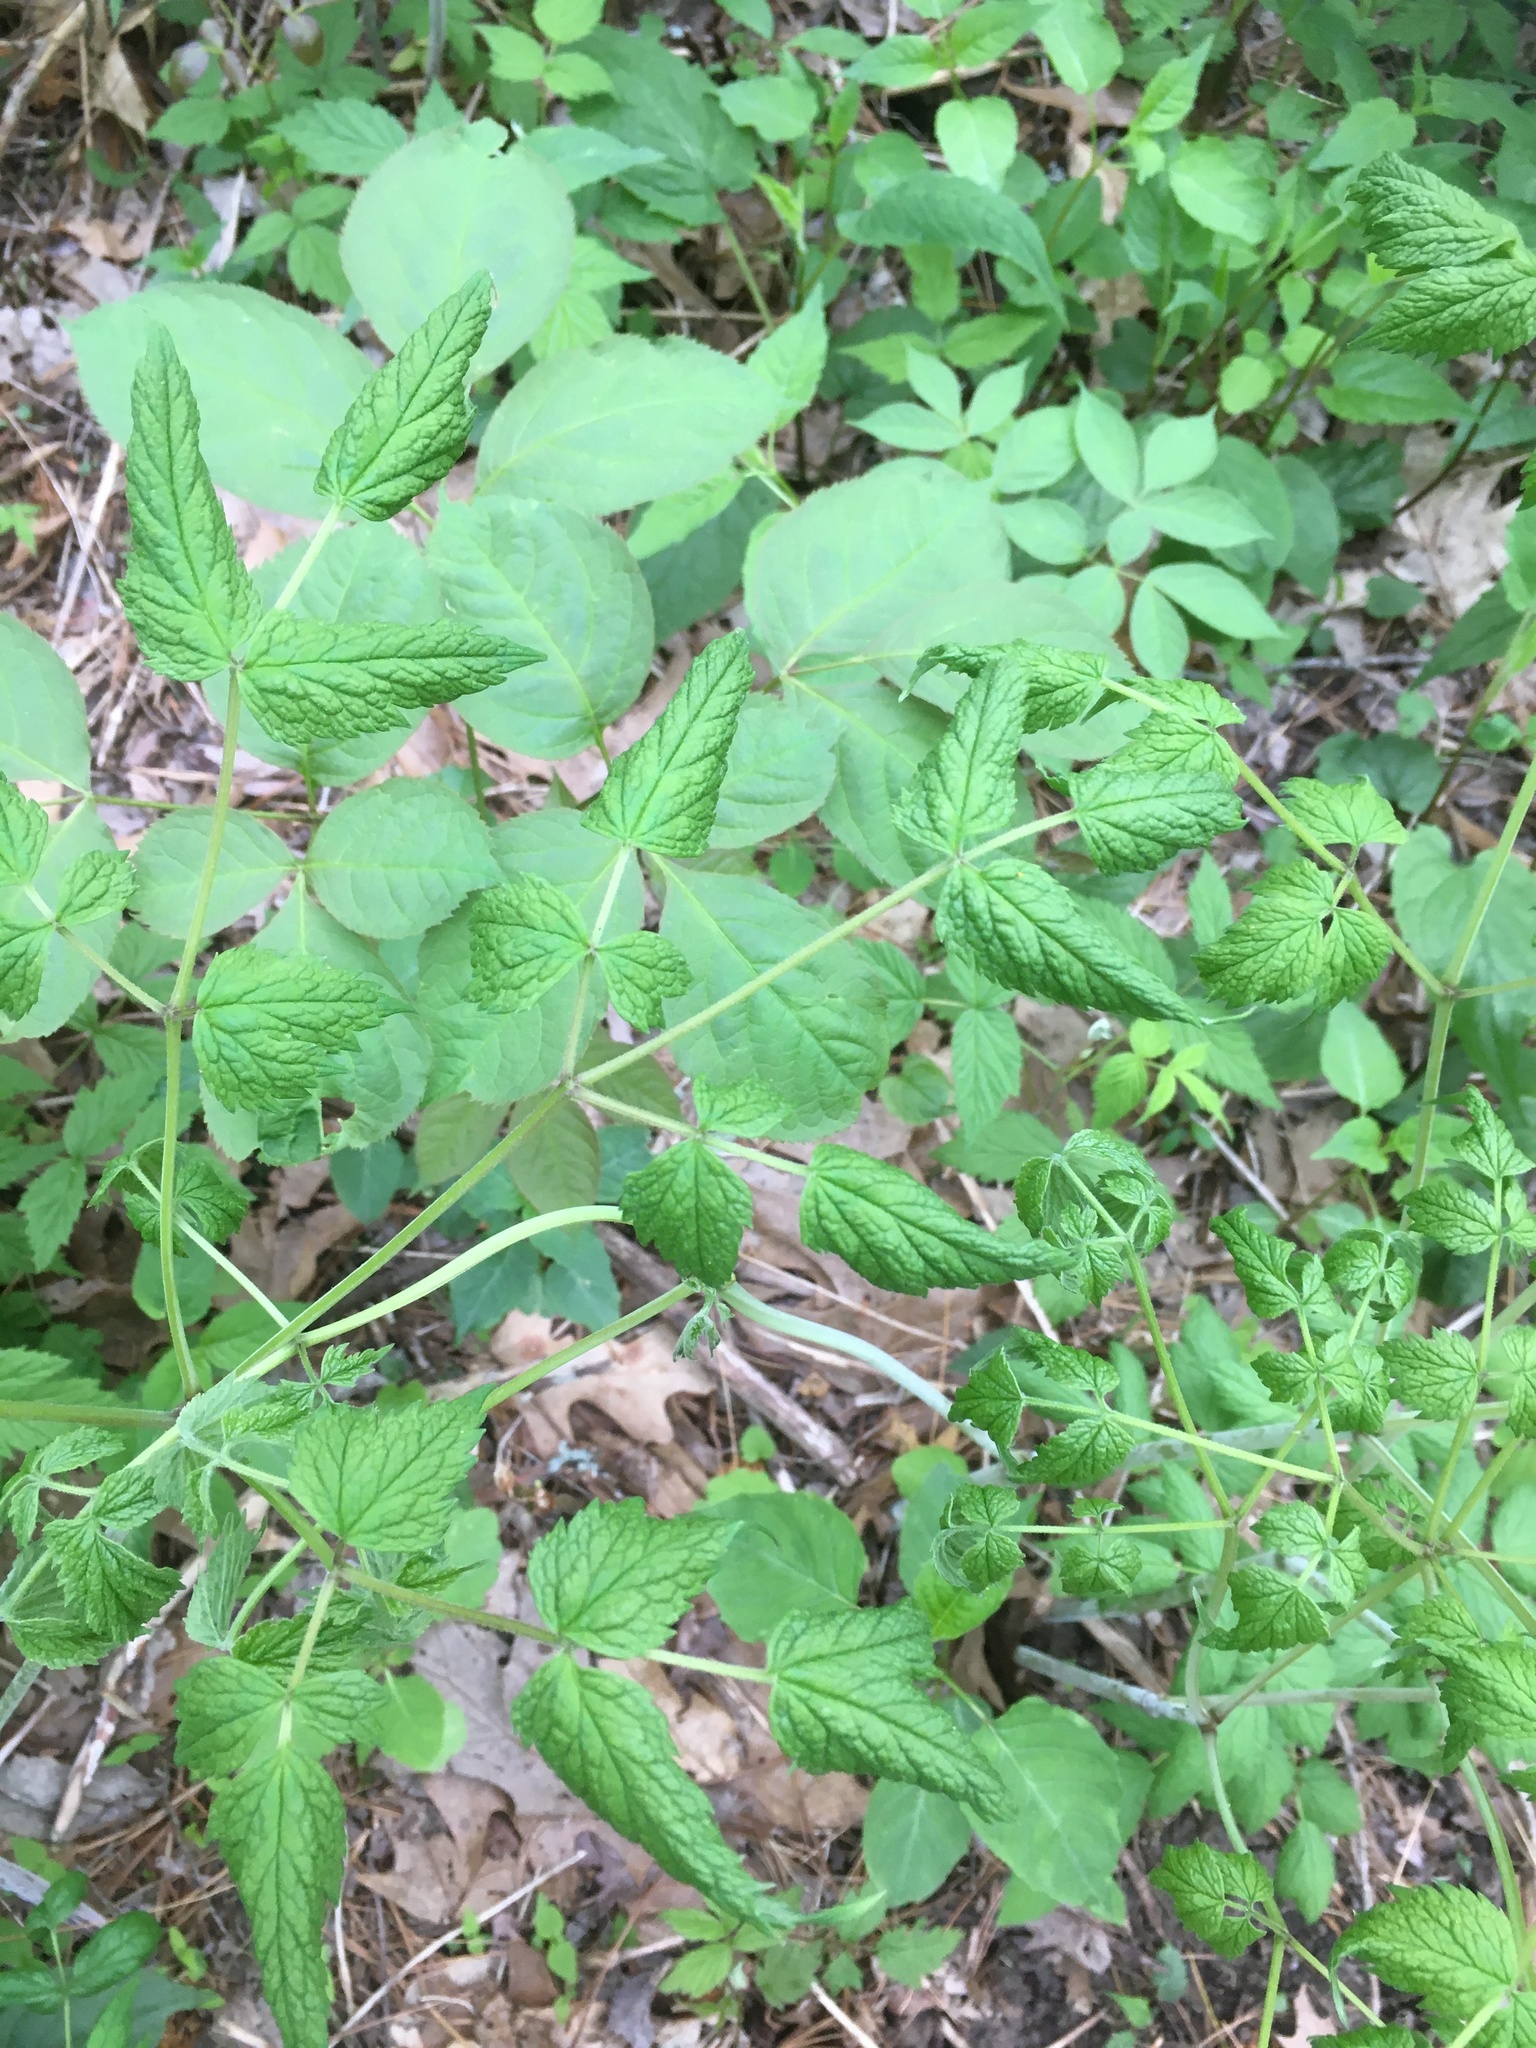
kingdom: Plantae
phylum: Tracheophyta
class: Magnoliopsida
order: Apiales
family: Araliaceae
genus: Aralia
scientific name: Aralia hispida
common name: Bristly sarsaparilla
